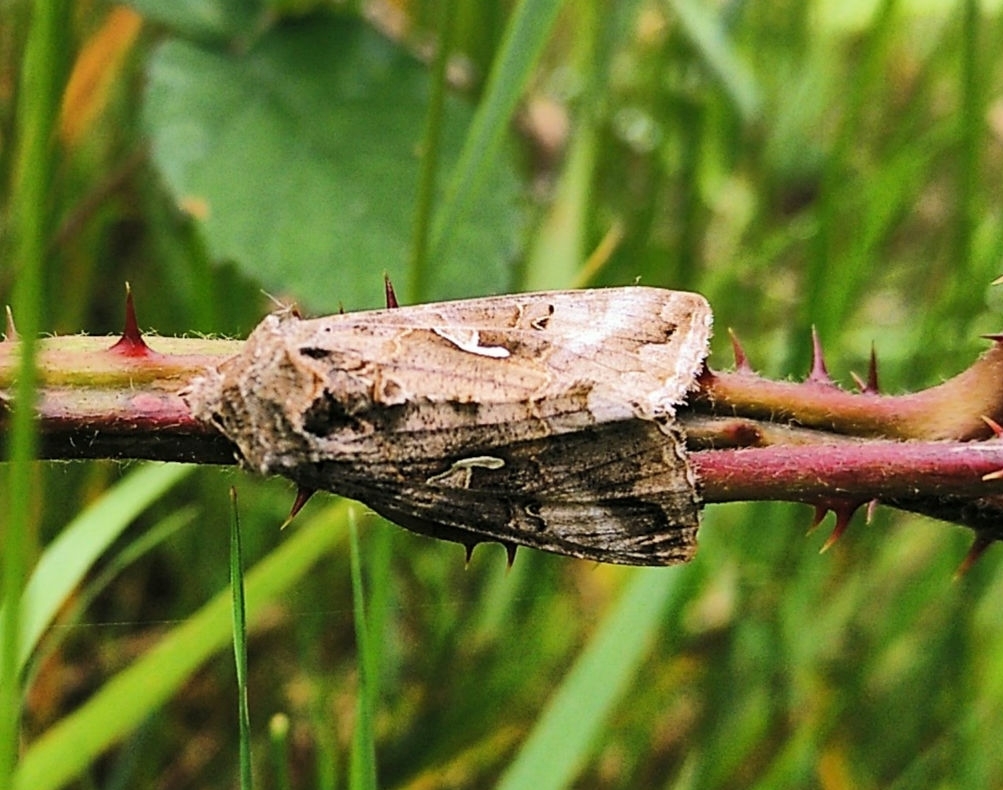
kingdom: Animalia
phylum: Arthropoda
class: Insecta
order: Lepidoptera
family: Noctuidae
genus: Autographa
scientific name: Autographa gamma
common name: Silver y
